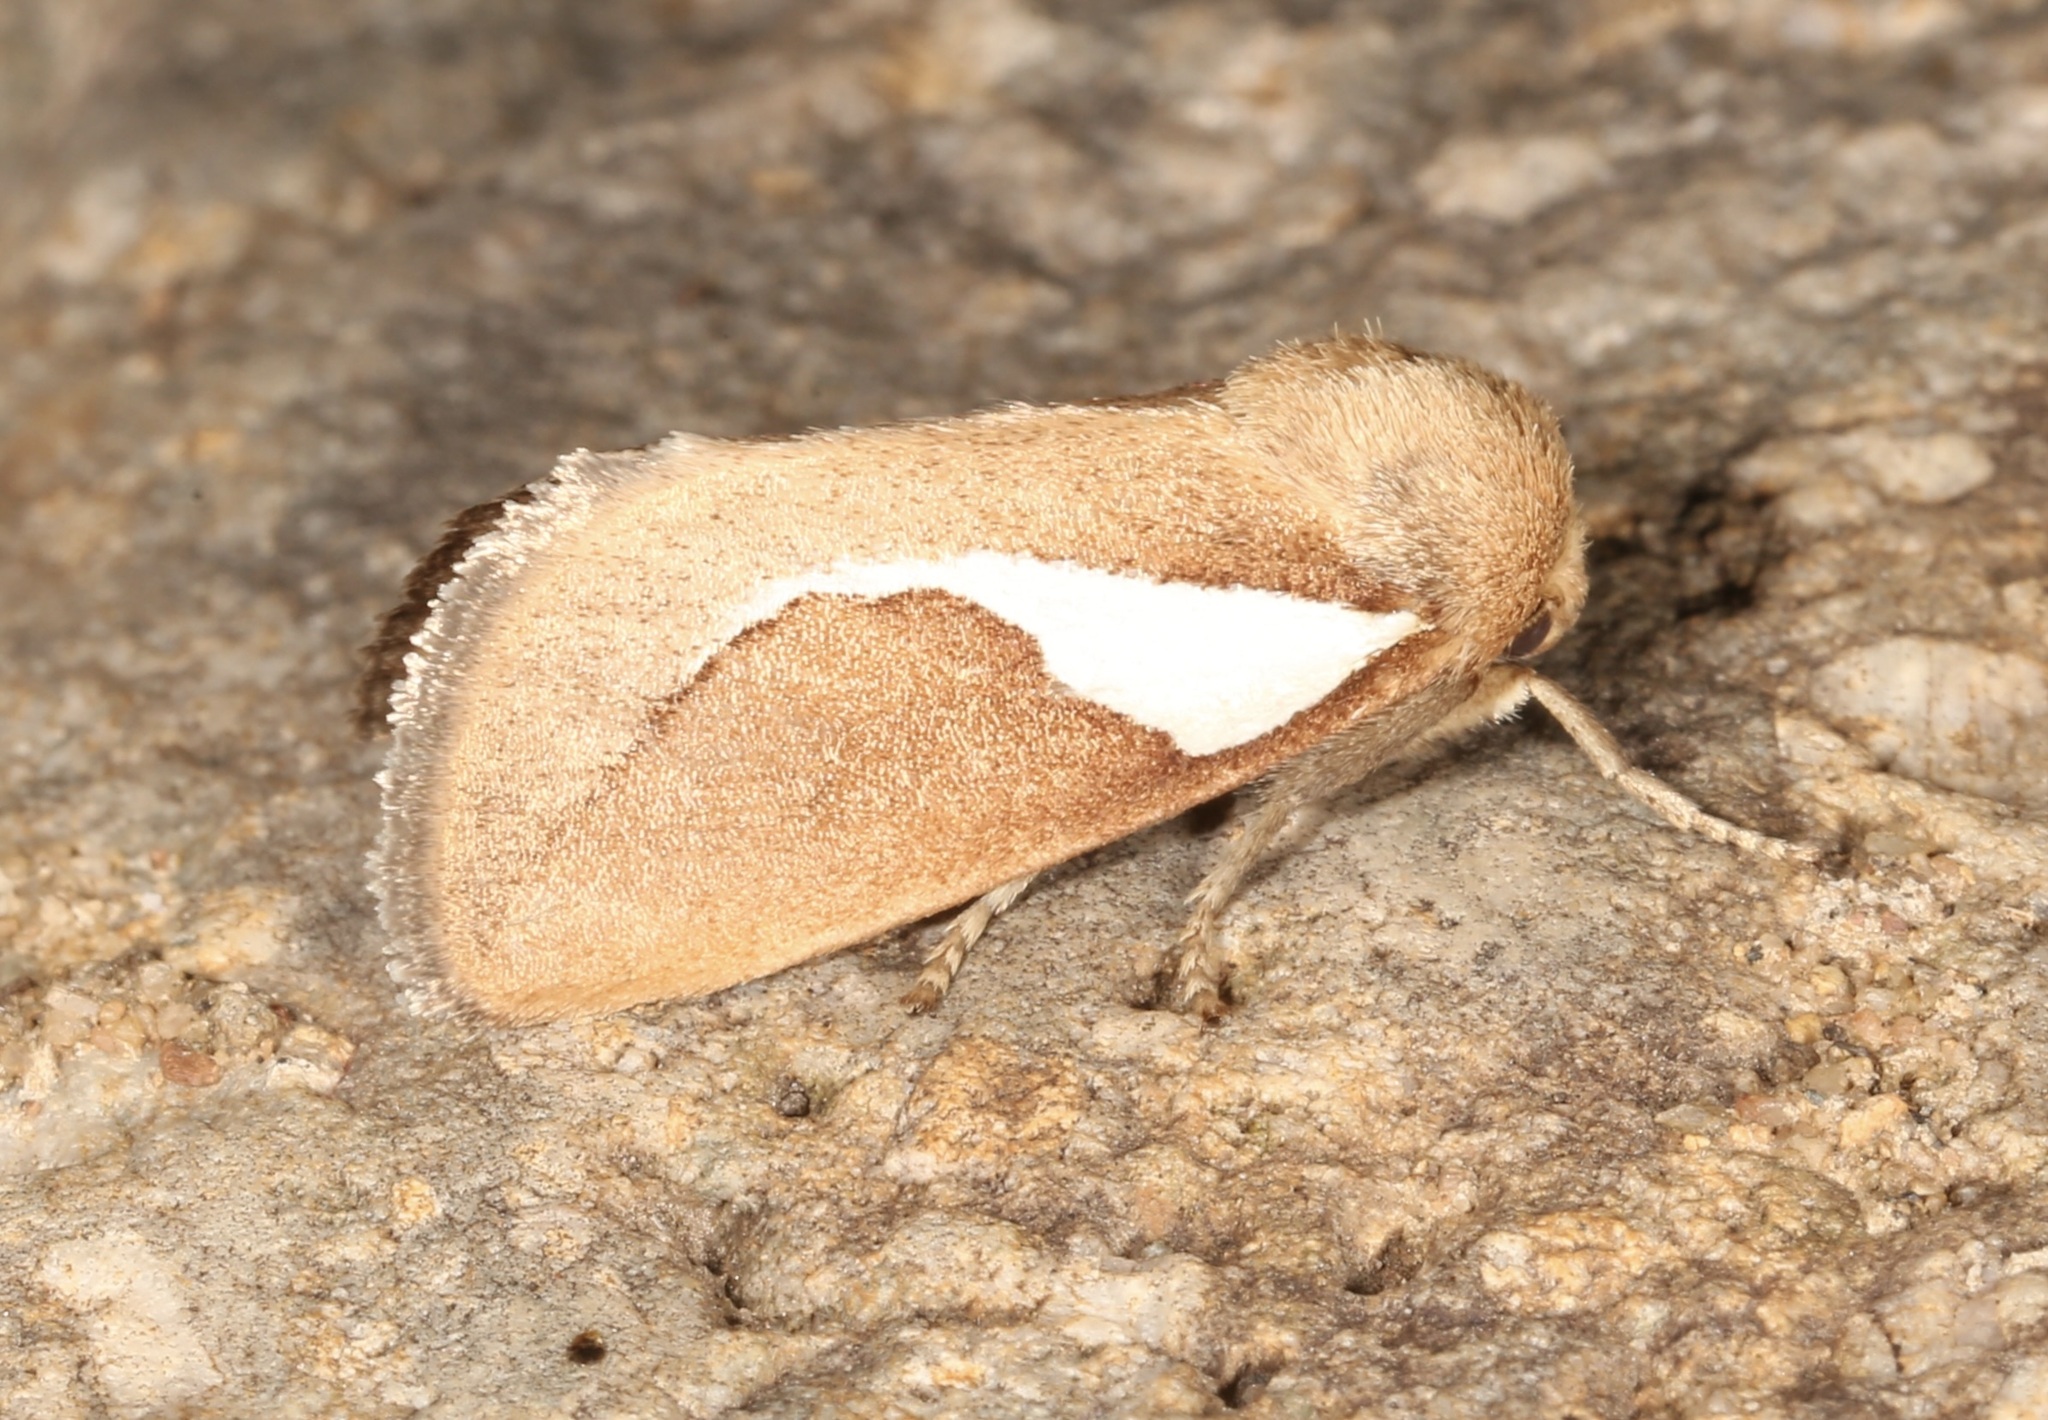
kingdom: Animalia
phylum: Arthropoda
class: Insecta
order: Lepidoptera
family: Limacodidae
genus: Prolimacodes
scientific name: Prolimacodes trigona
